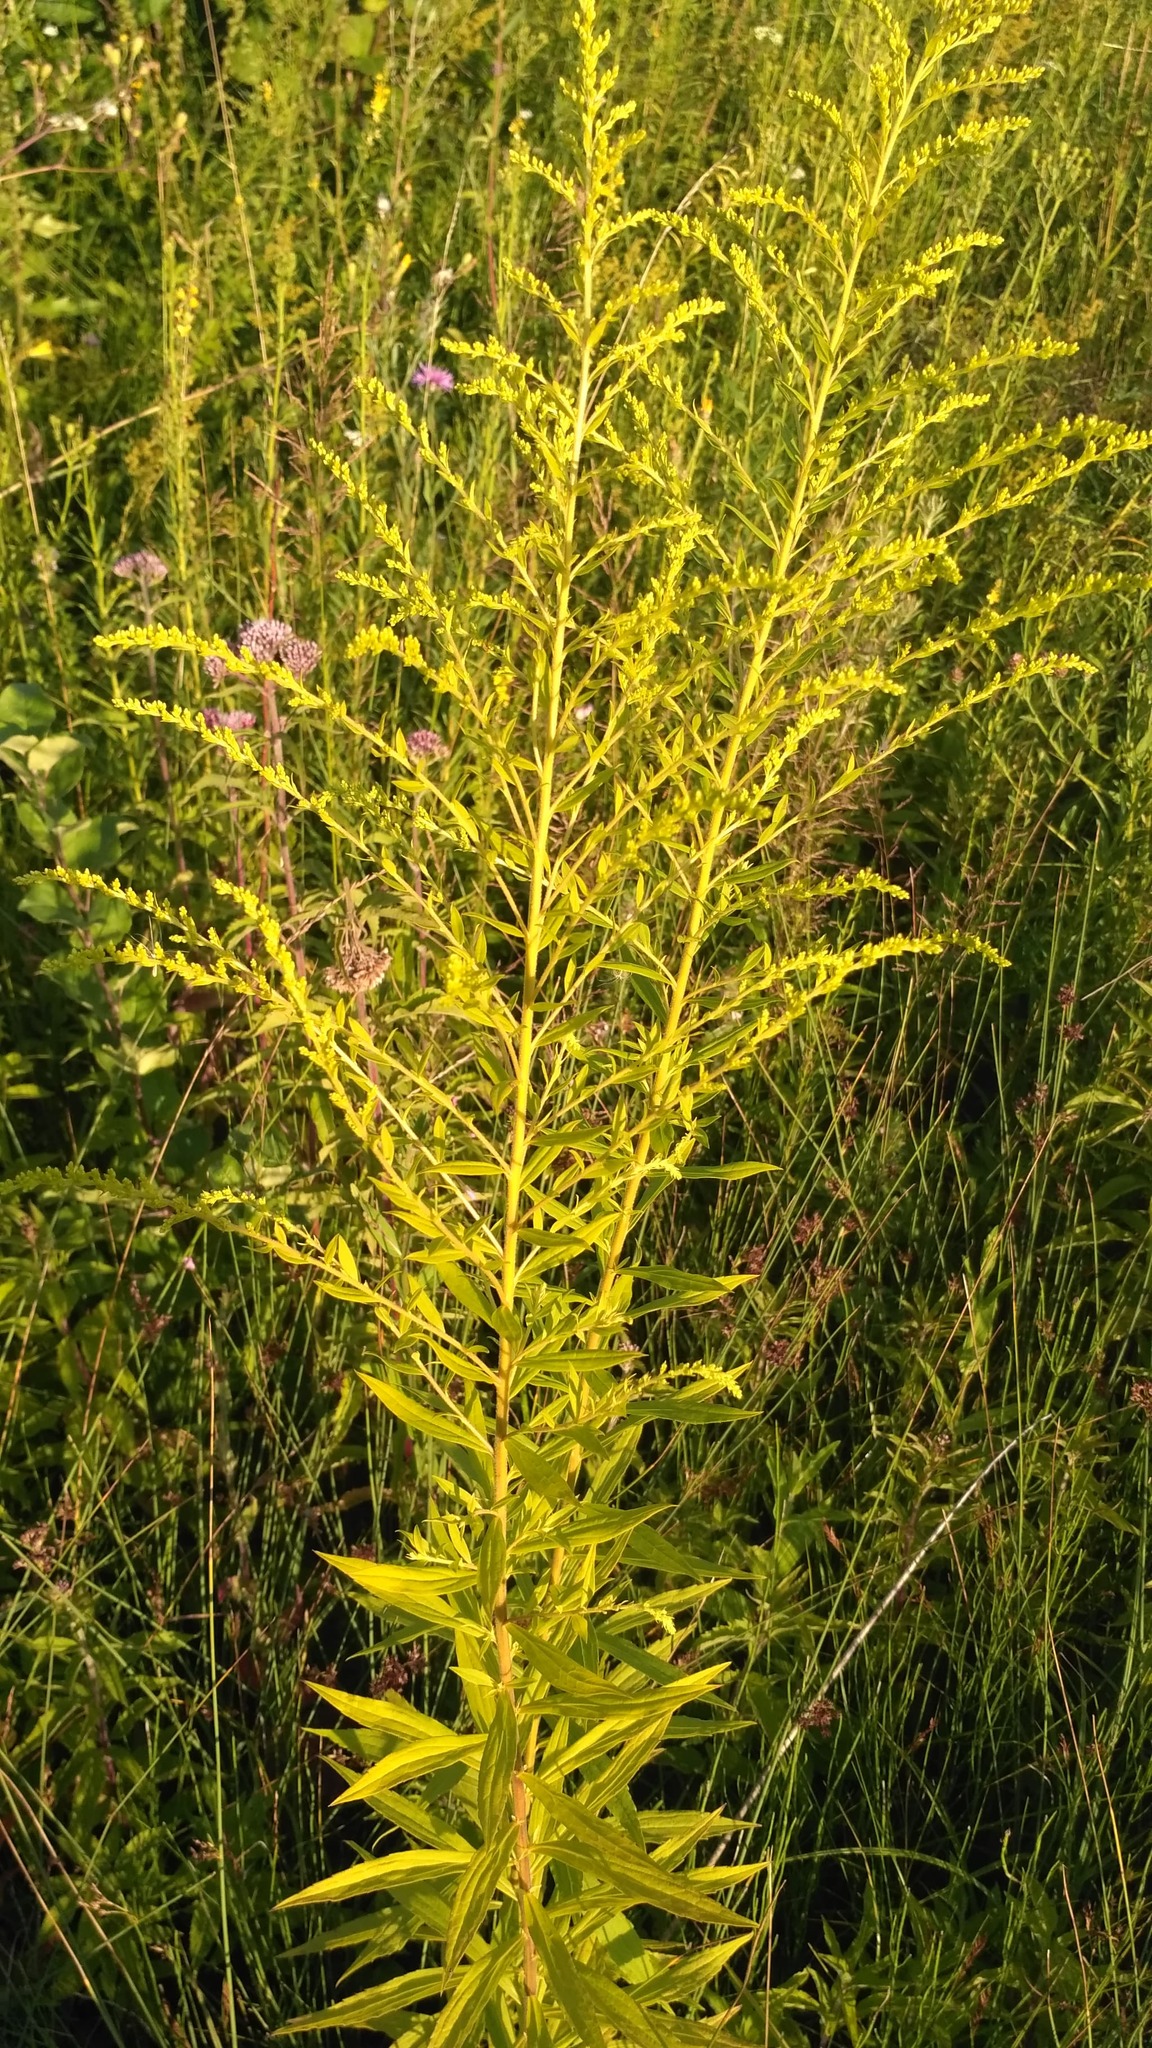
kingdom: Plantae
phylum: Tracheophyta
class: Magnoliopsida
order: Asterales
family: Asteraceae
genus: Solidago
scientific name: Solidago canadensis
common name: Canada goldenrod
